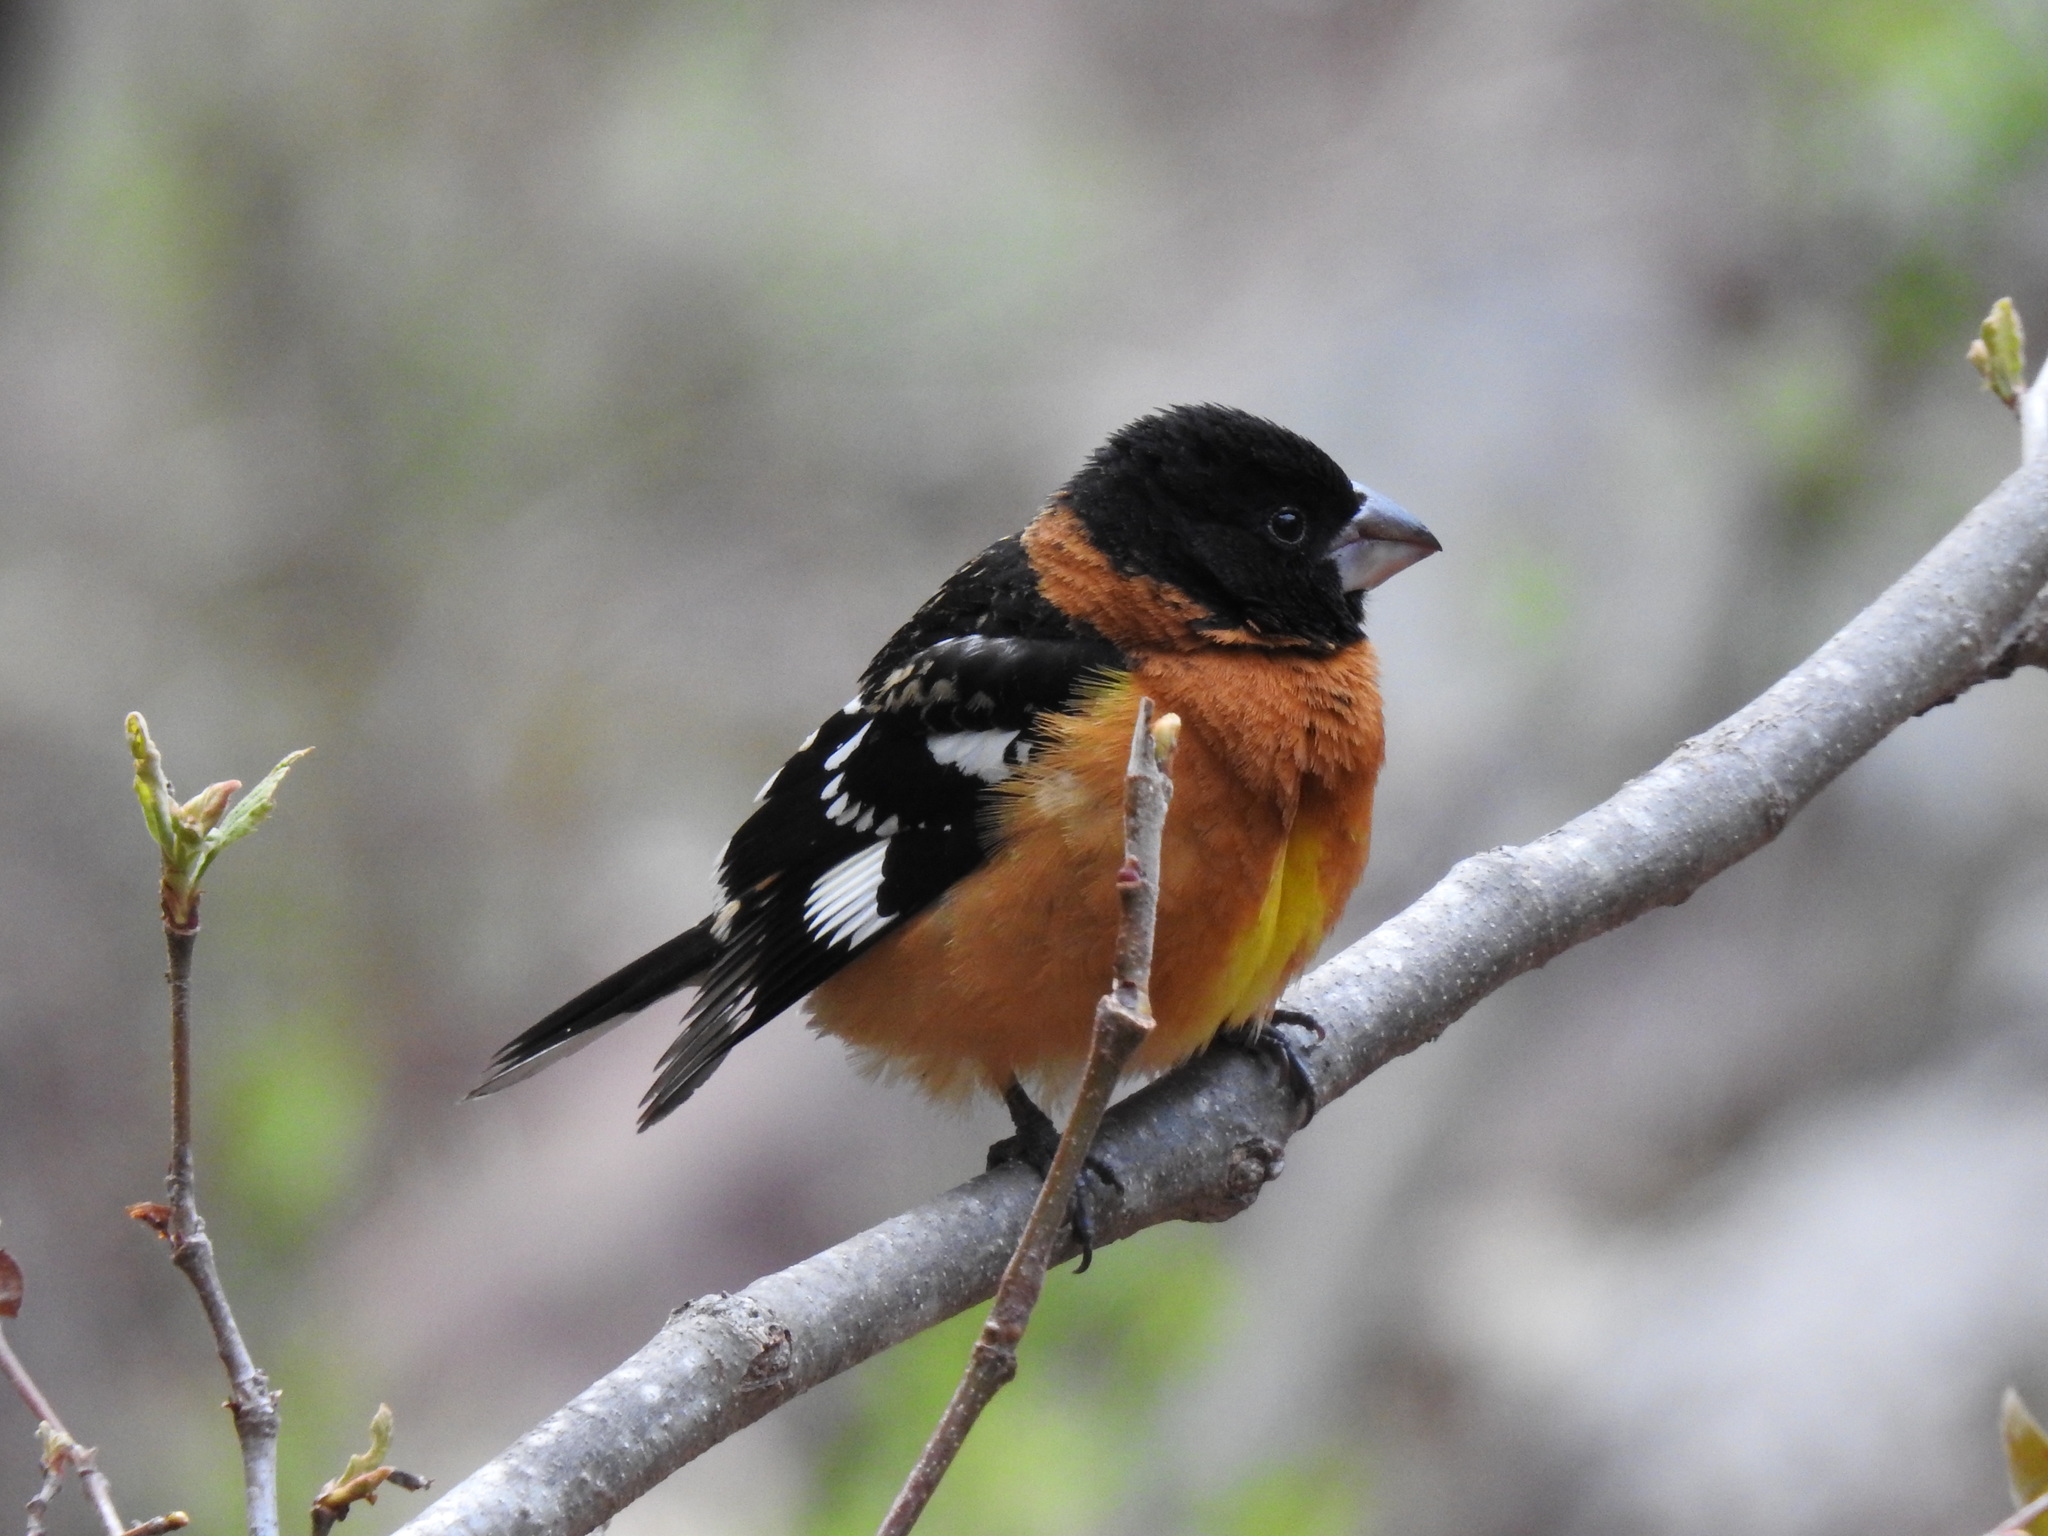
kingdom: Animalia
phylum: Chordata
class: Aves
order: Passeriformes
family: Cardinalidae
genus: Pheucticus
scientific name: Pheucticus melanocephalus
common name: Black-headed grosbeak
